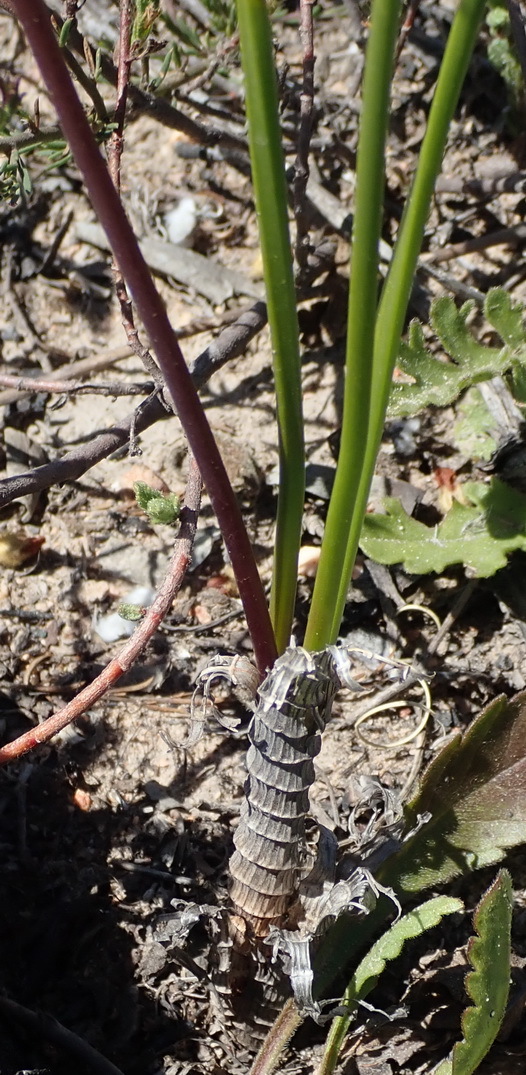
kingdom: Plantae
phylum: Tracheophyta
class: Liliopsida
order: Asparagales
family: Asparagaceae
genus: Drimia
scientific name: Drimia exuviata
